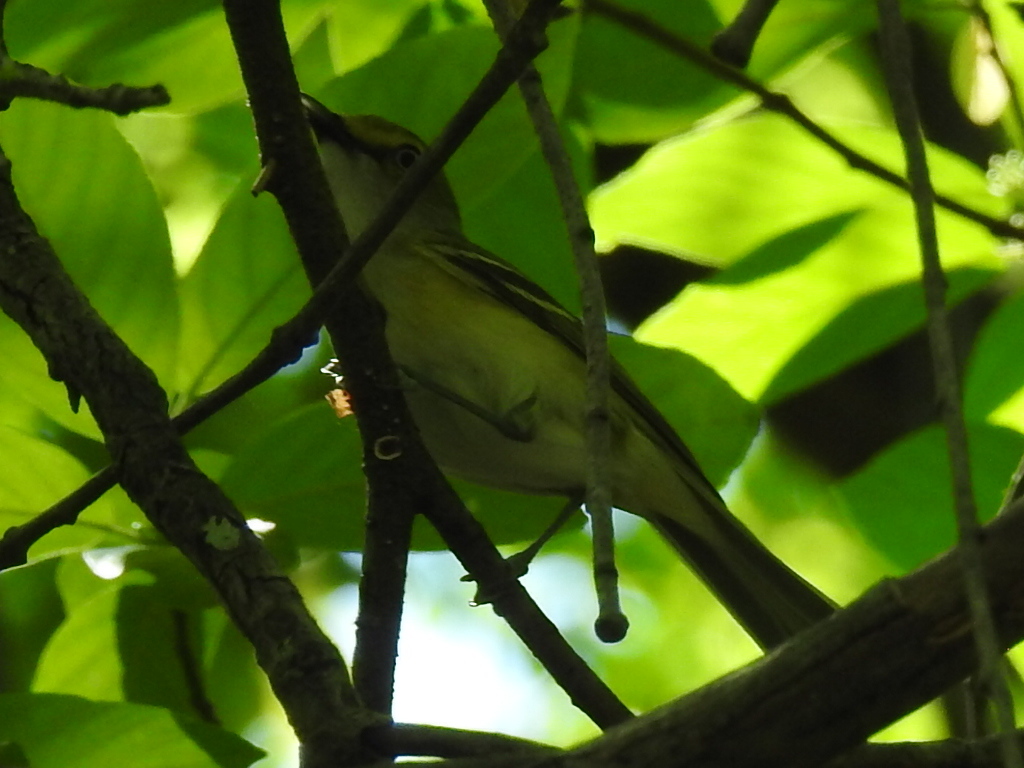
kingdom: Animalia
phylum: Chordata
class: Aves
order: Passeriformes
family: Vireonidae
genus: Vireo
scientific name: Vireo griseus
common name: White-eyed vireo
